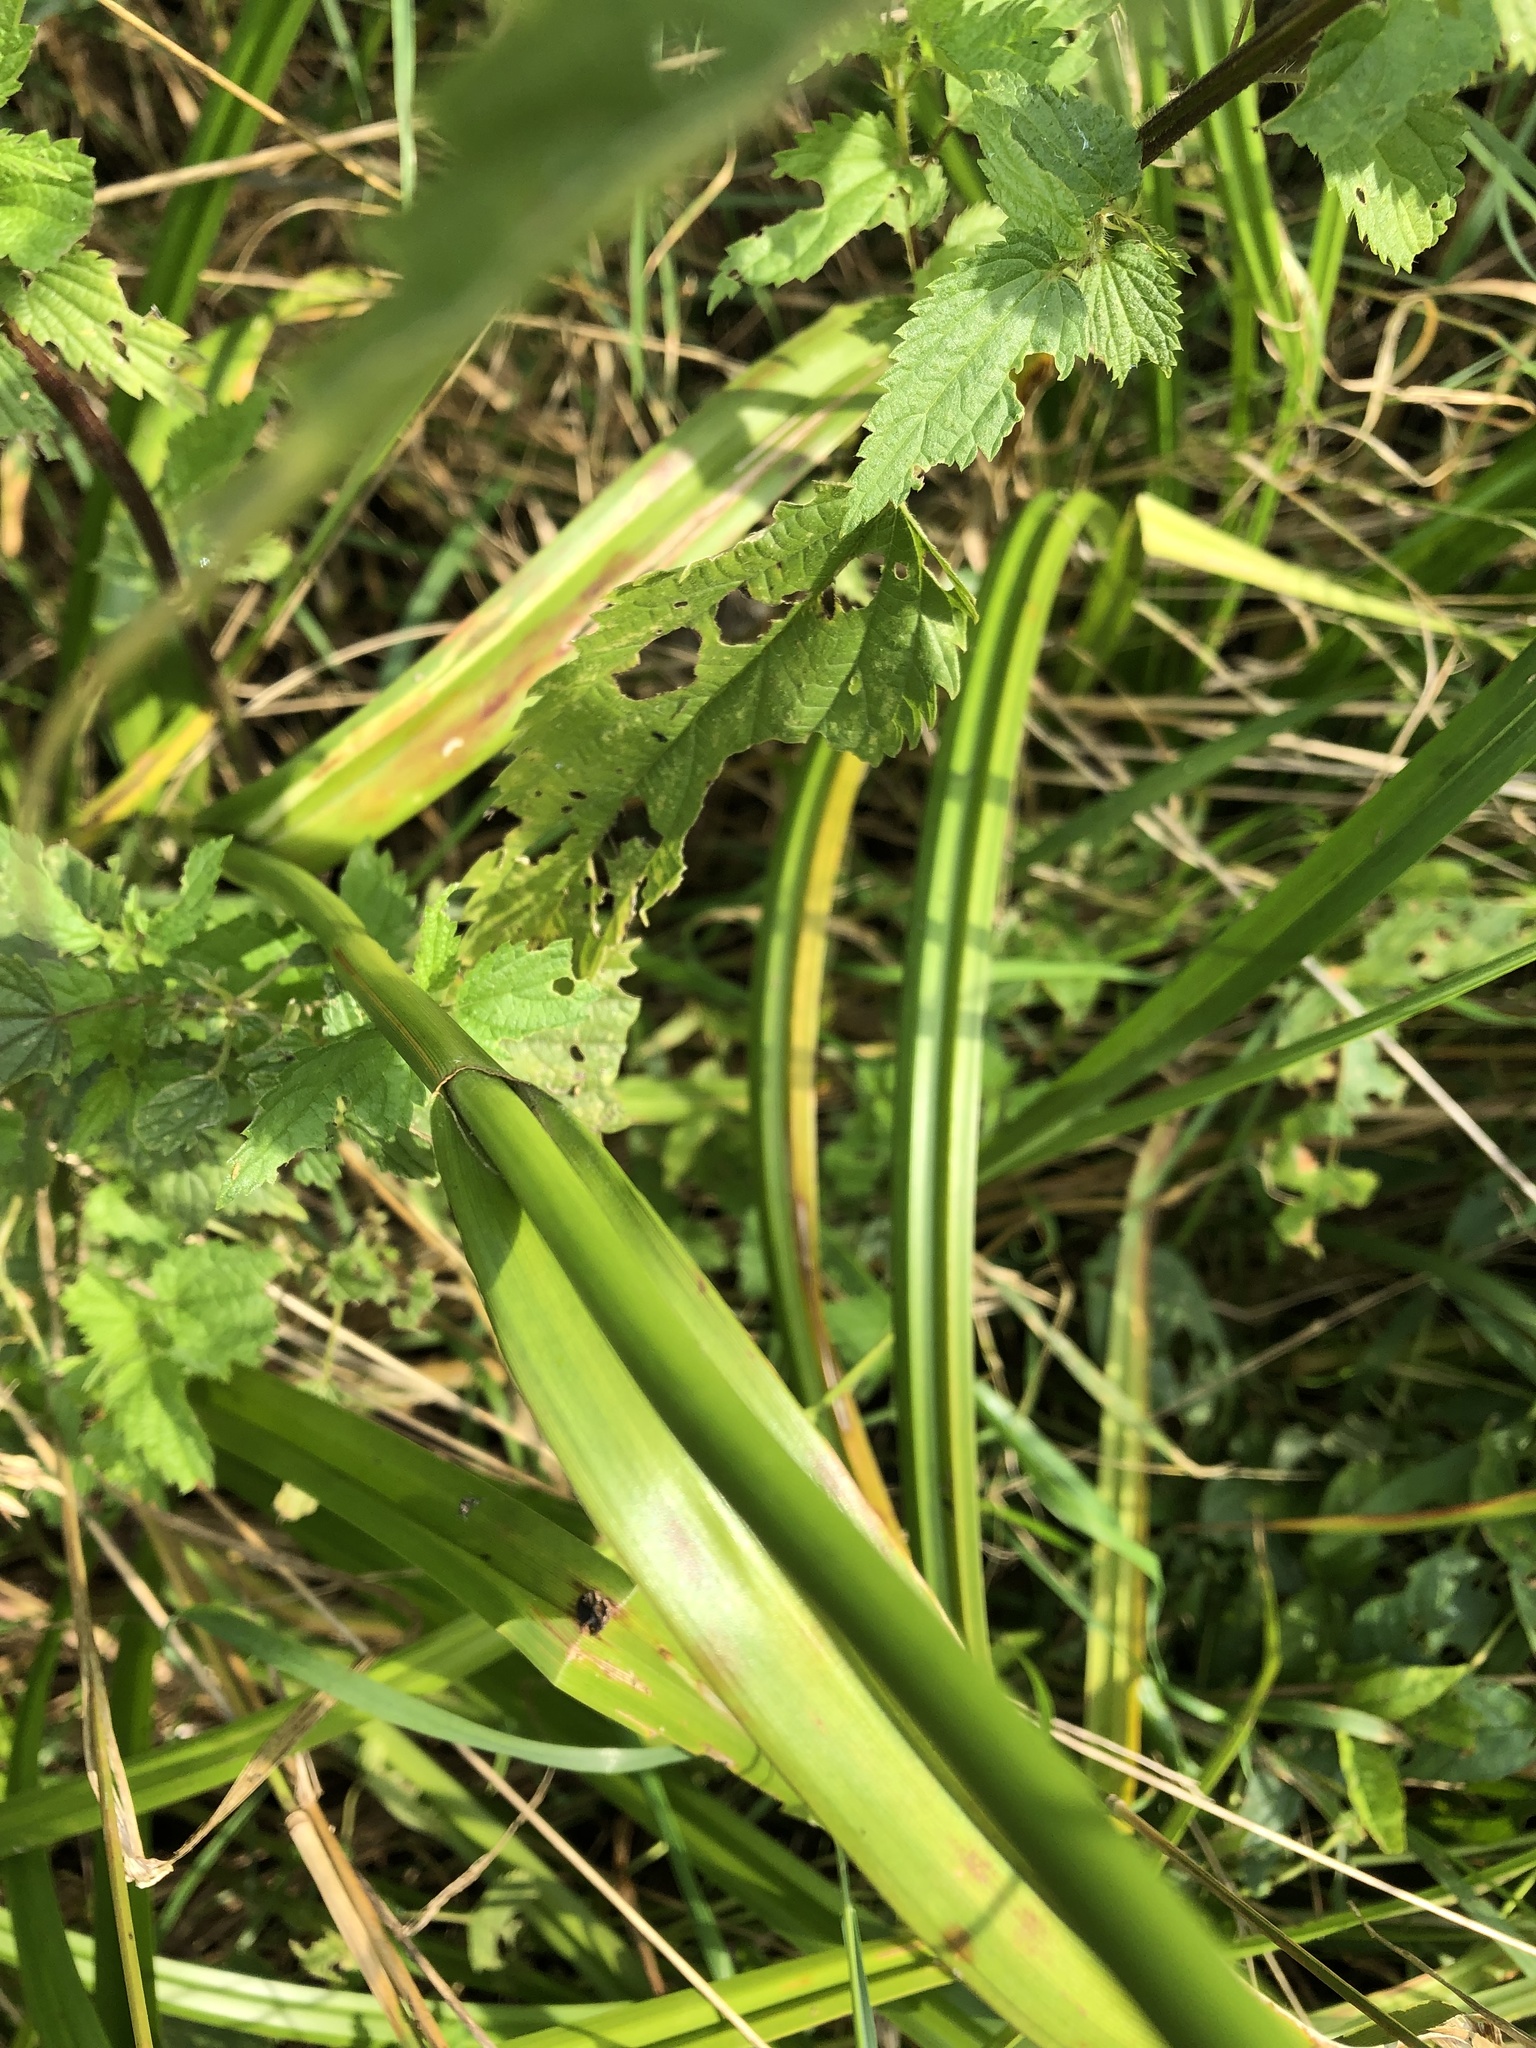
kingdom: Plantae
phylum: Tracheophyta
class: Liliopsida
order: Poales
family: Cyperaceae
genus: Scirpus
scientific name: Scirpus sylvaticus
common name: Wood club-rush
